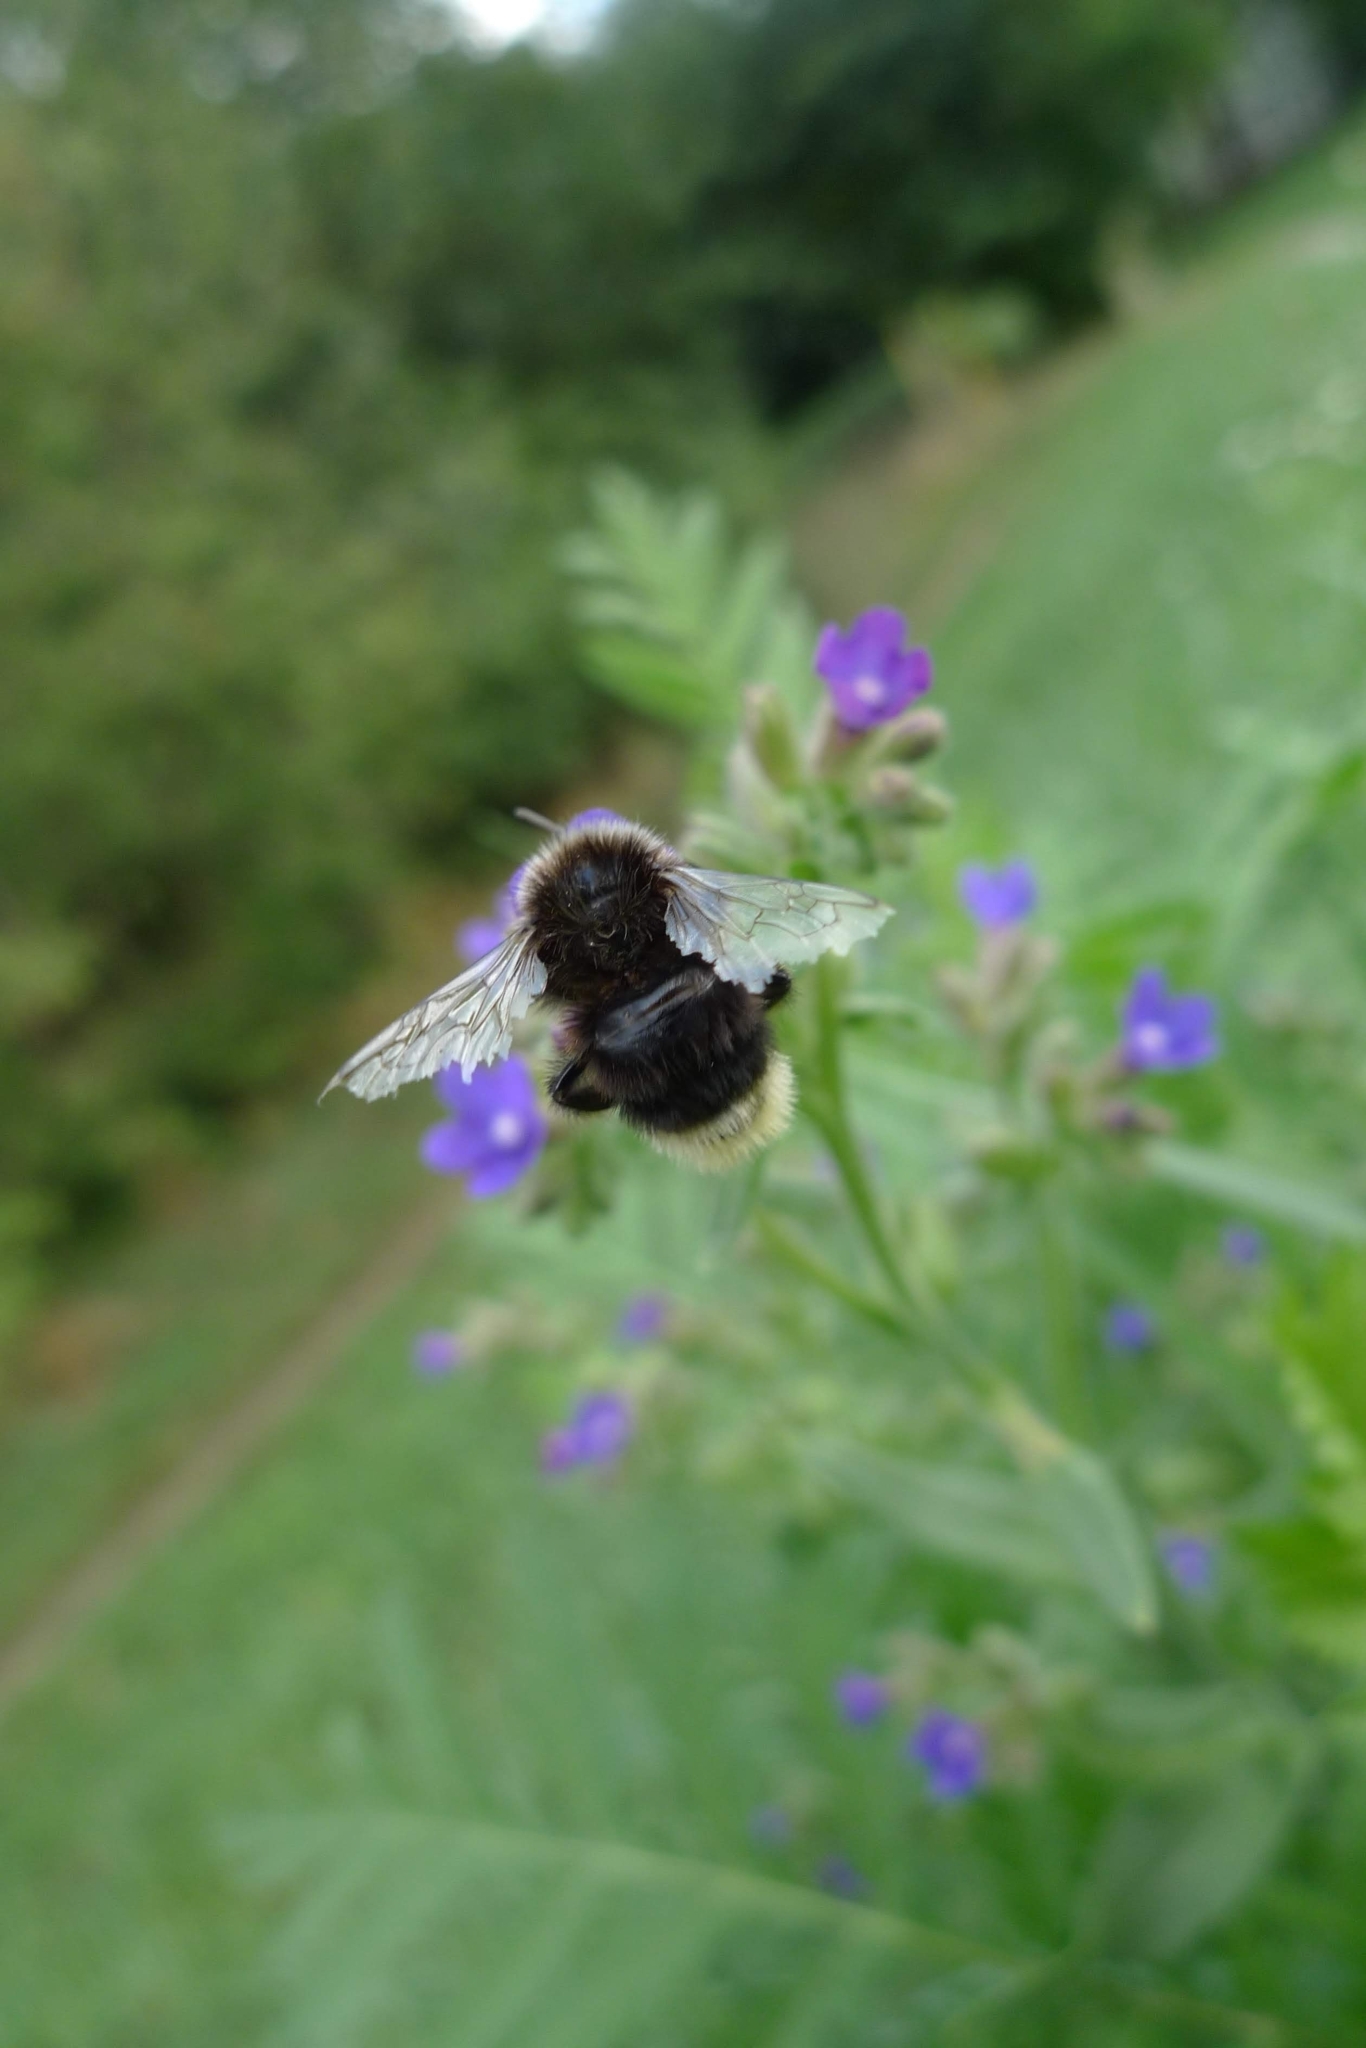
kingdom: Animalia
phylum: Arthropoda
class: Insecta
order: Hymenoptera
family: Apidae
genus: Bombus
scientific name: Bombus lapidarius
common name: Large red-tailed humble-bee
